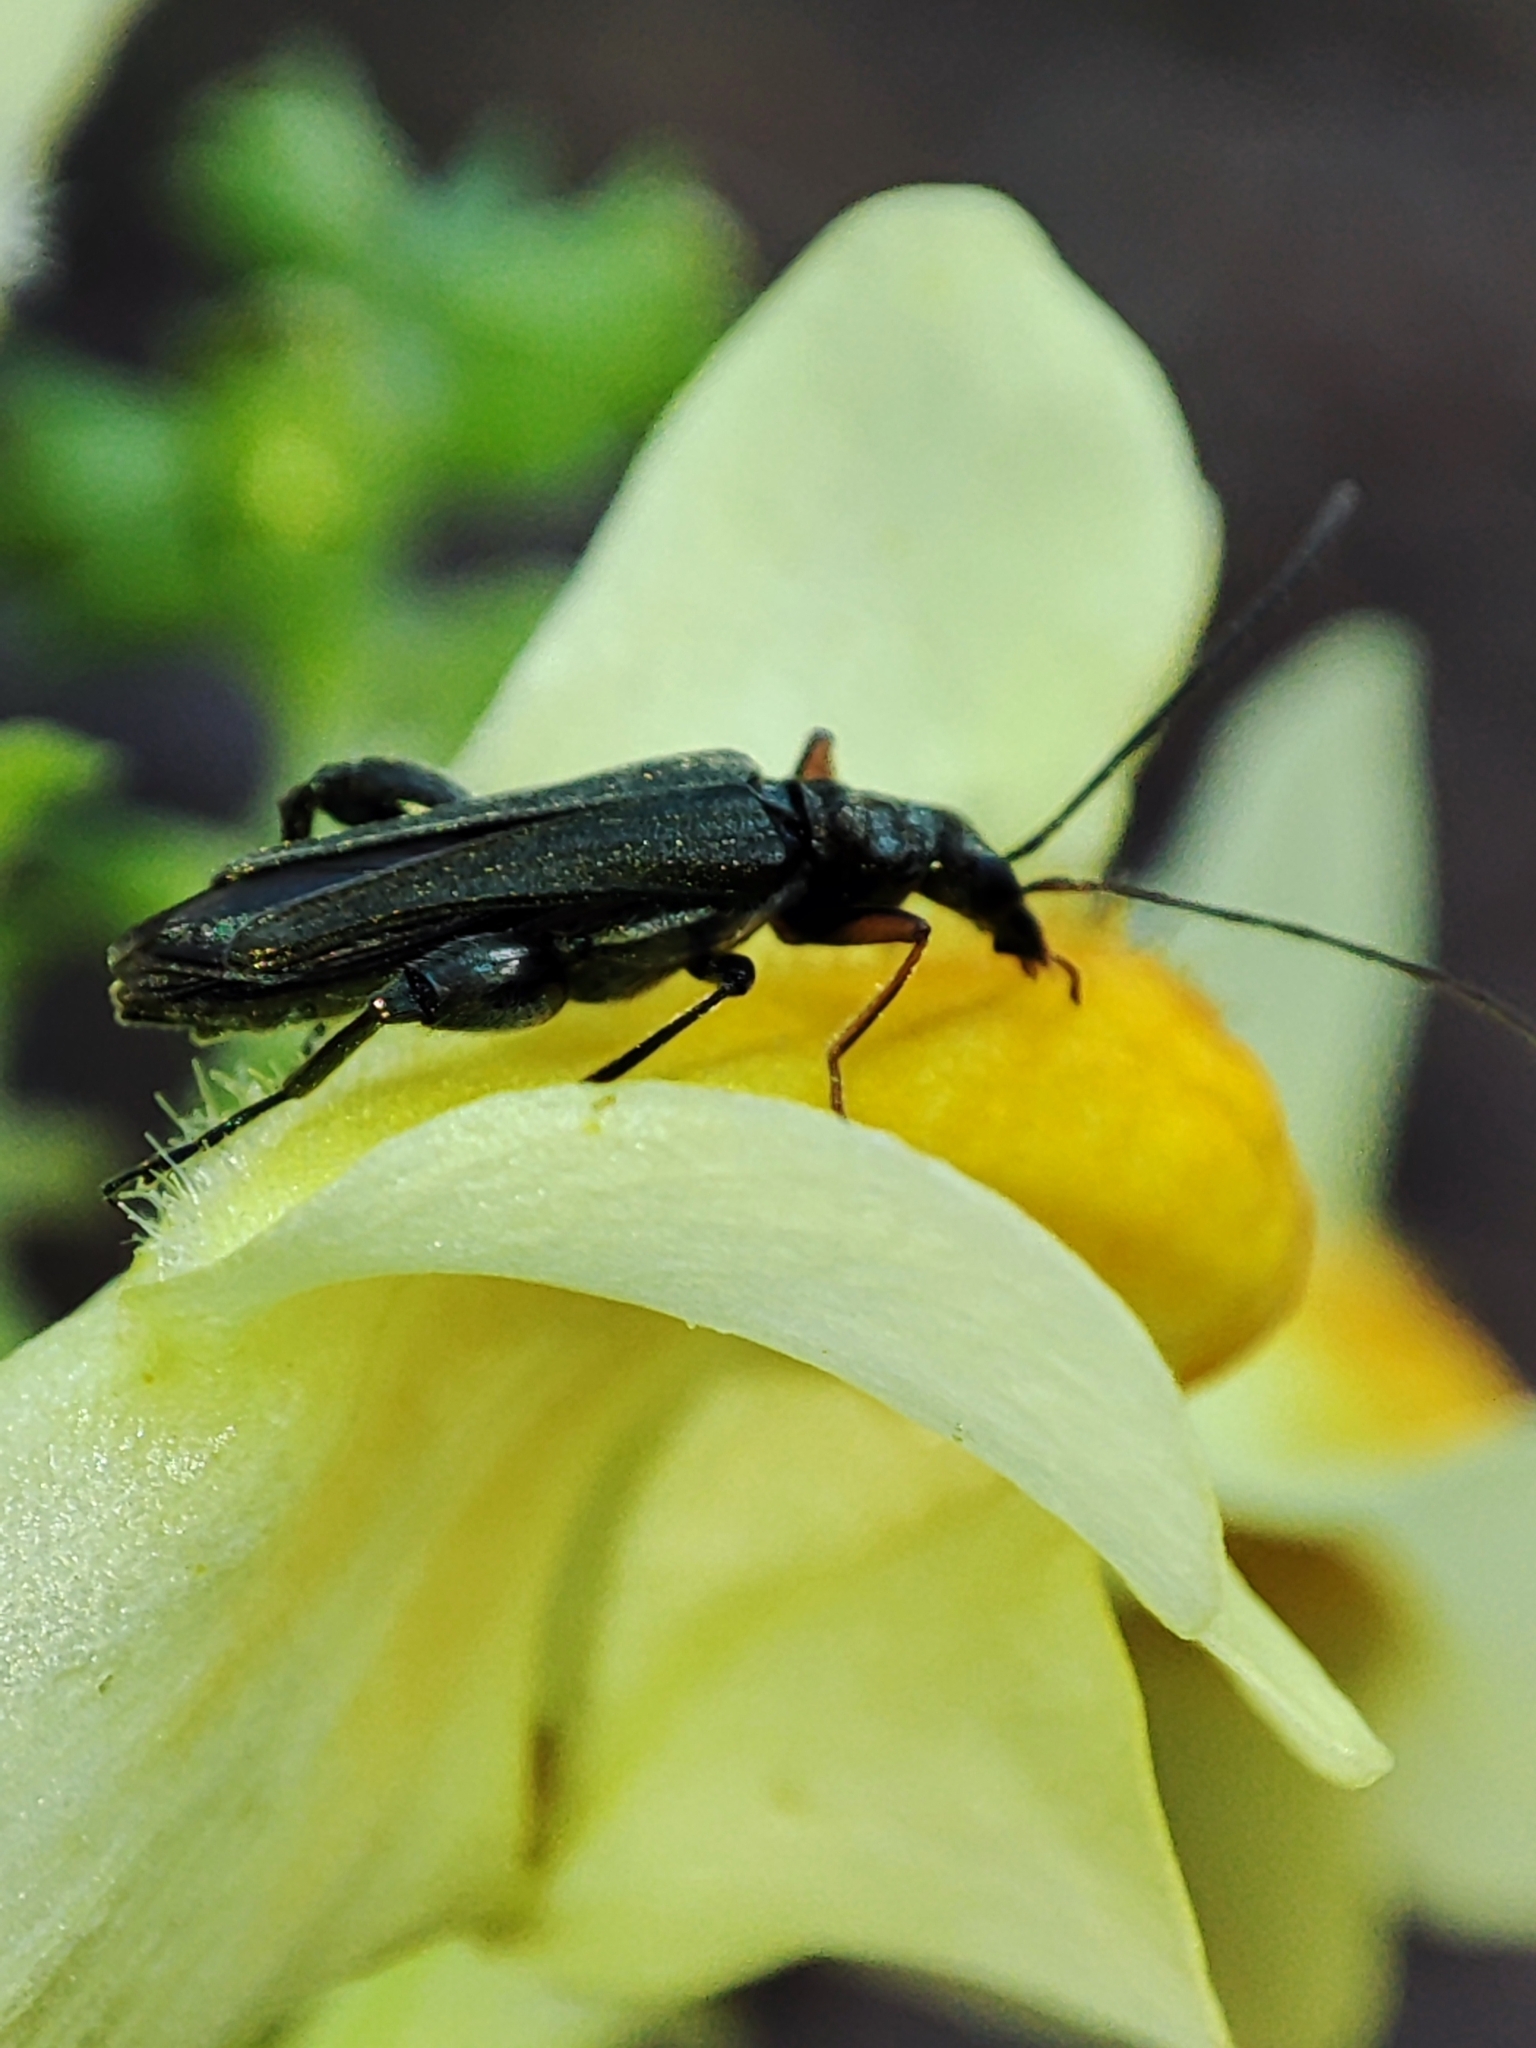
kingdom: Animalia
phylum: Arthropoda
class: Insecta
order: Coleoptera
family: Oedemeridae
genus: Oedemera
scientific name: Oedemera flavipes
